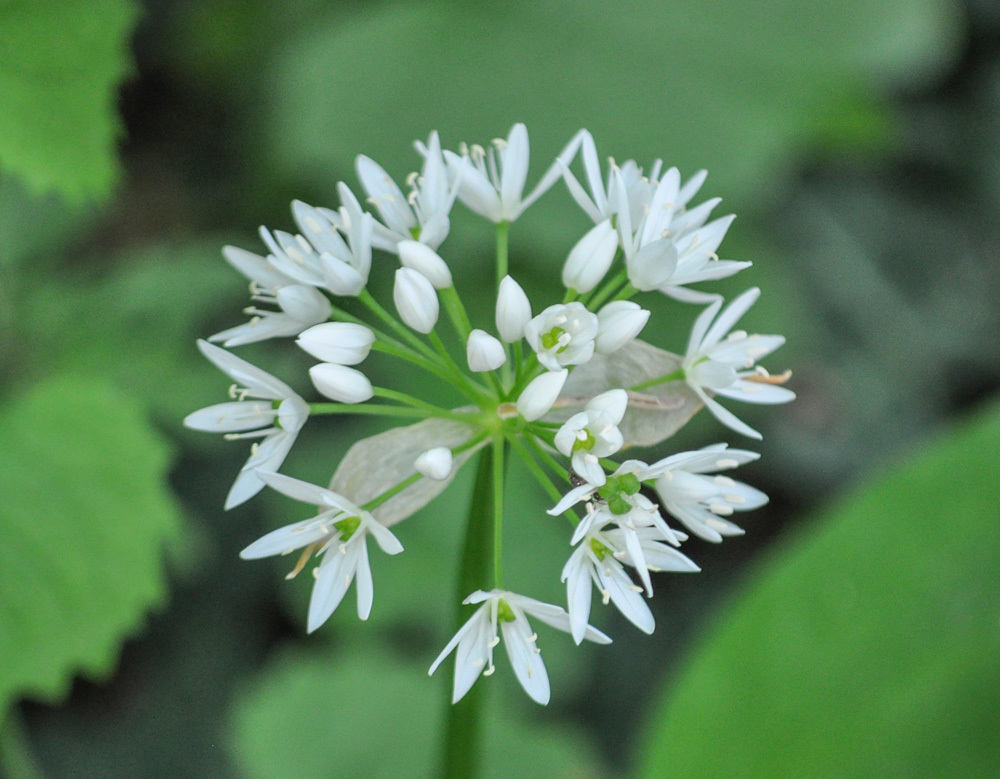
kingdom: Plantae
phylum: Tracheophyta
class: Liliopsida
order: Asparagales
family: Amaryllidaceae
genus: Allium
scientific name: Allium ursinum
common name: Ramsons
